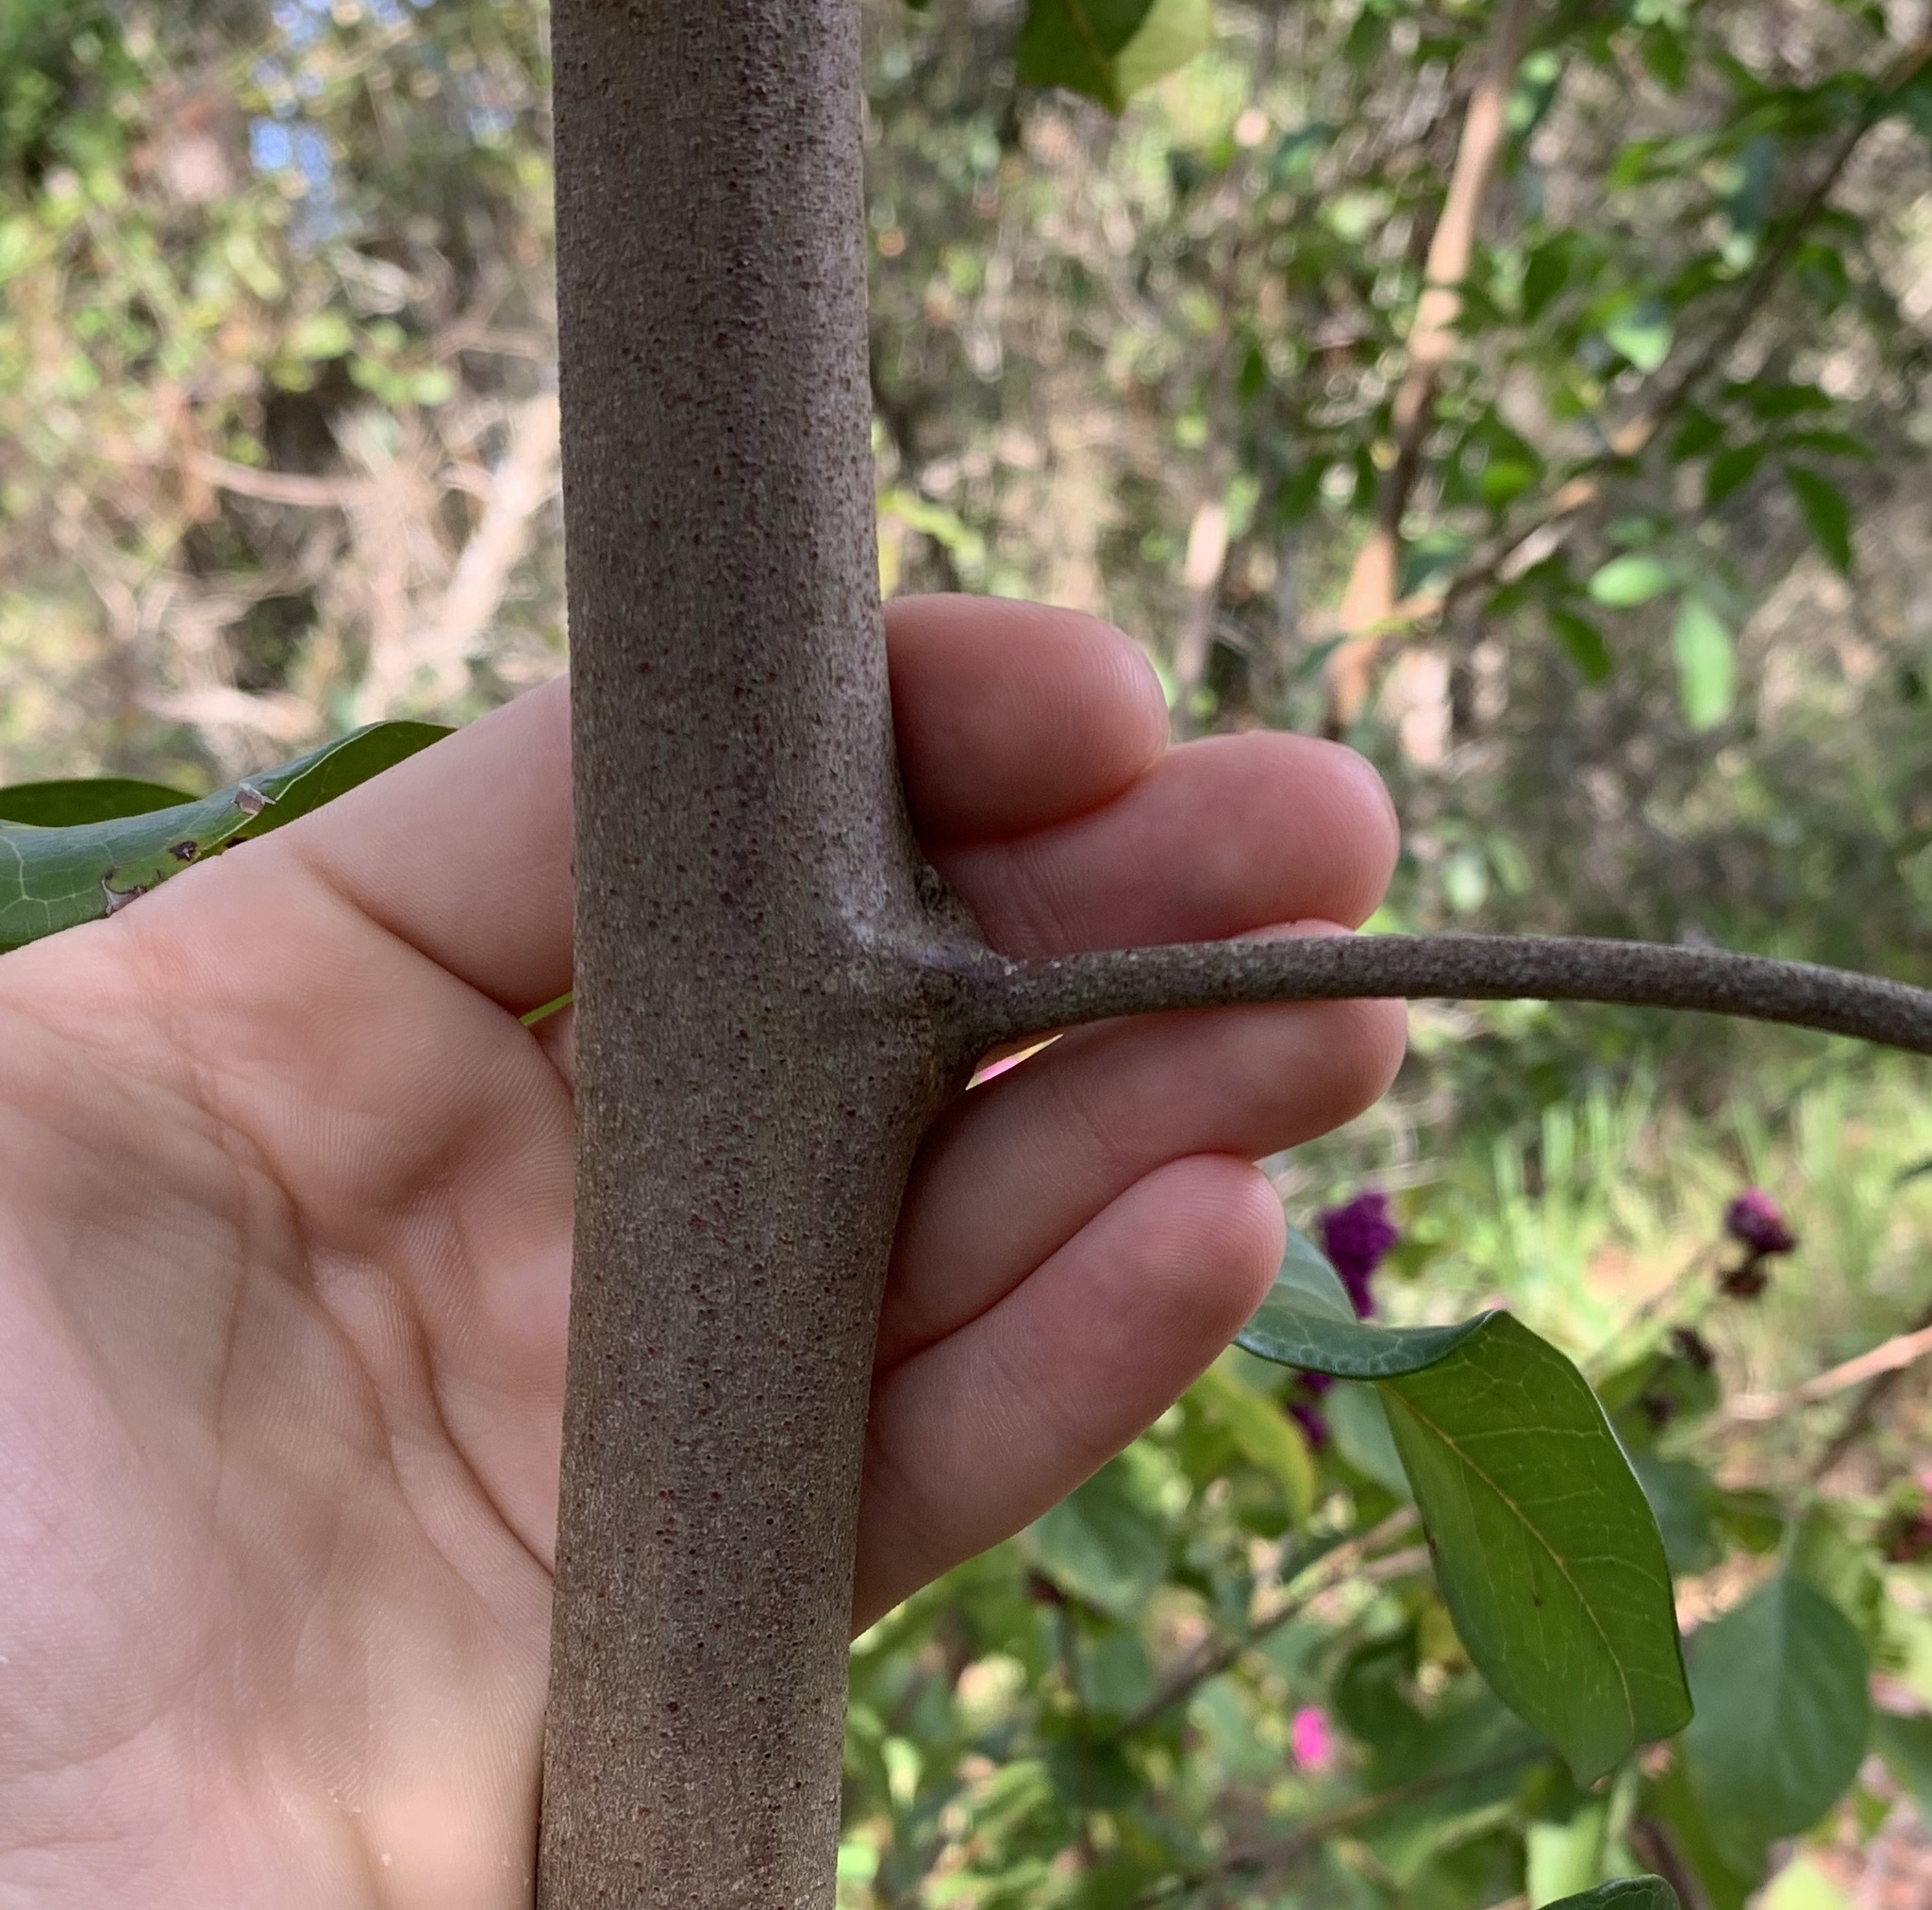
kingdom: Plantae
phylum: Tracheophyta
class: Magnoliopsida
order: Sapindales
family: Sapindaceae
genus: Cupaniopsis
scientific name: Cupaniopsis anacardioides
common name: Carrotwood
